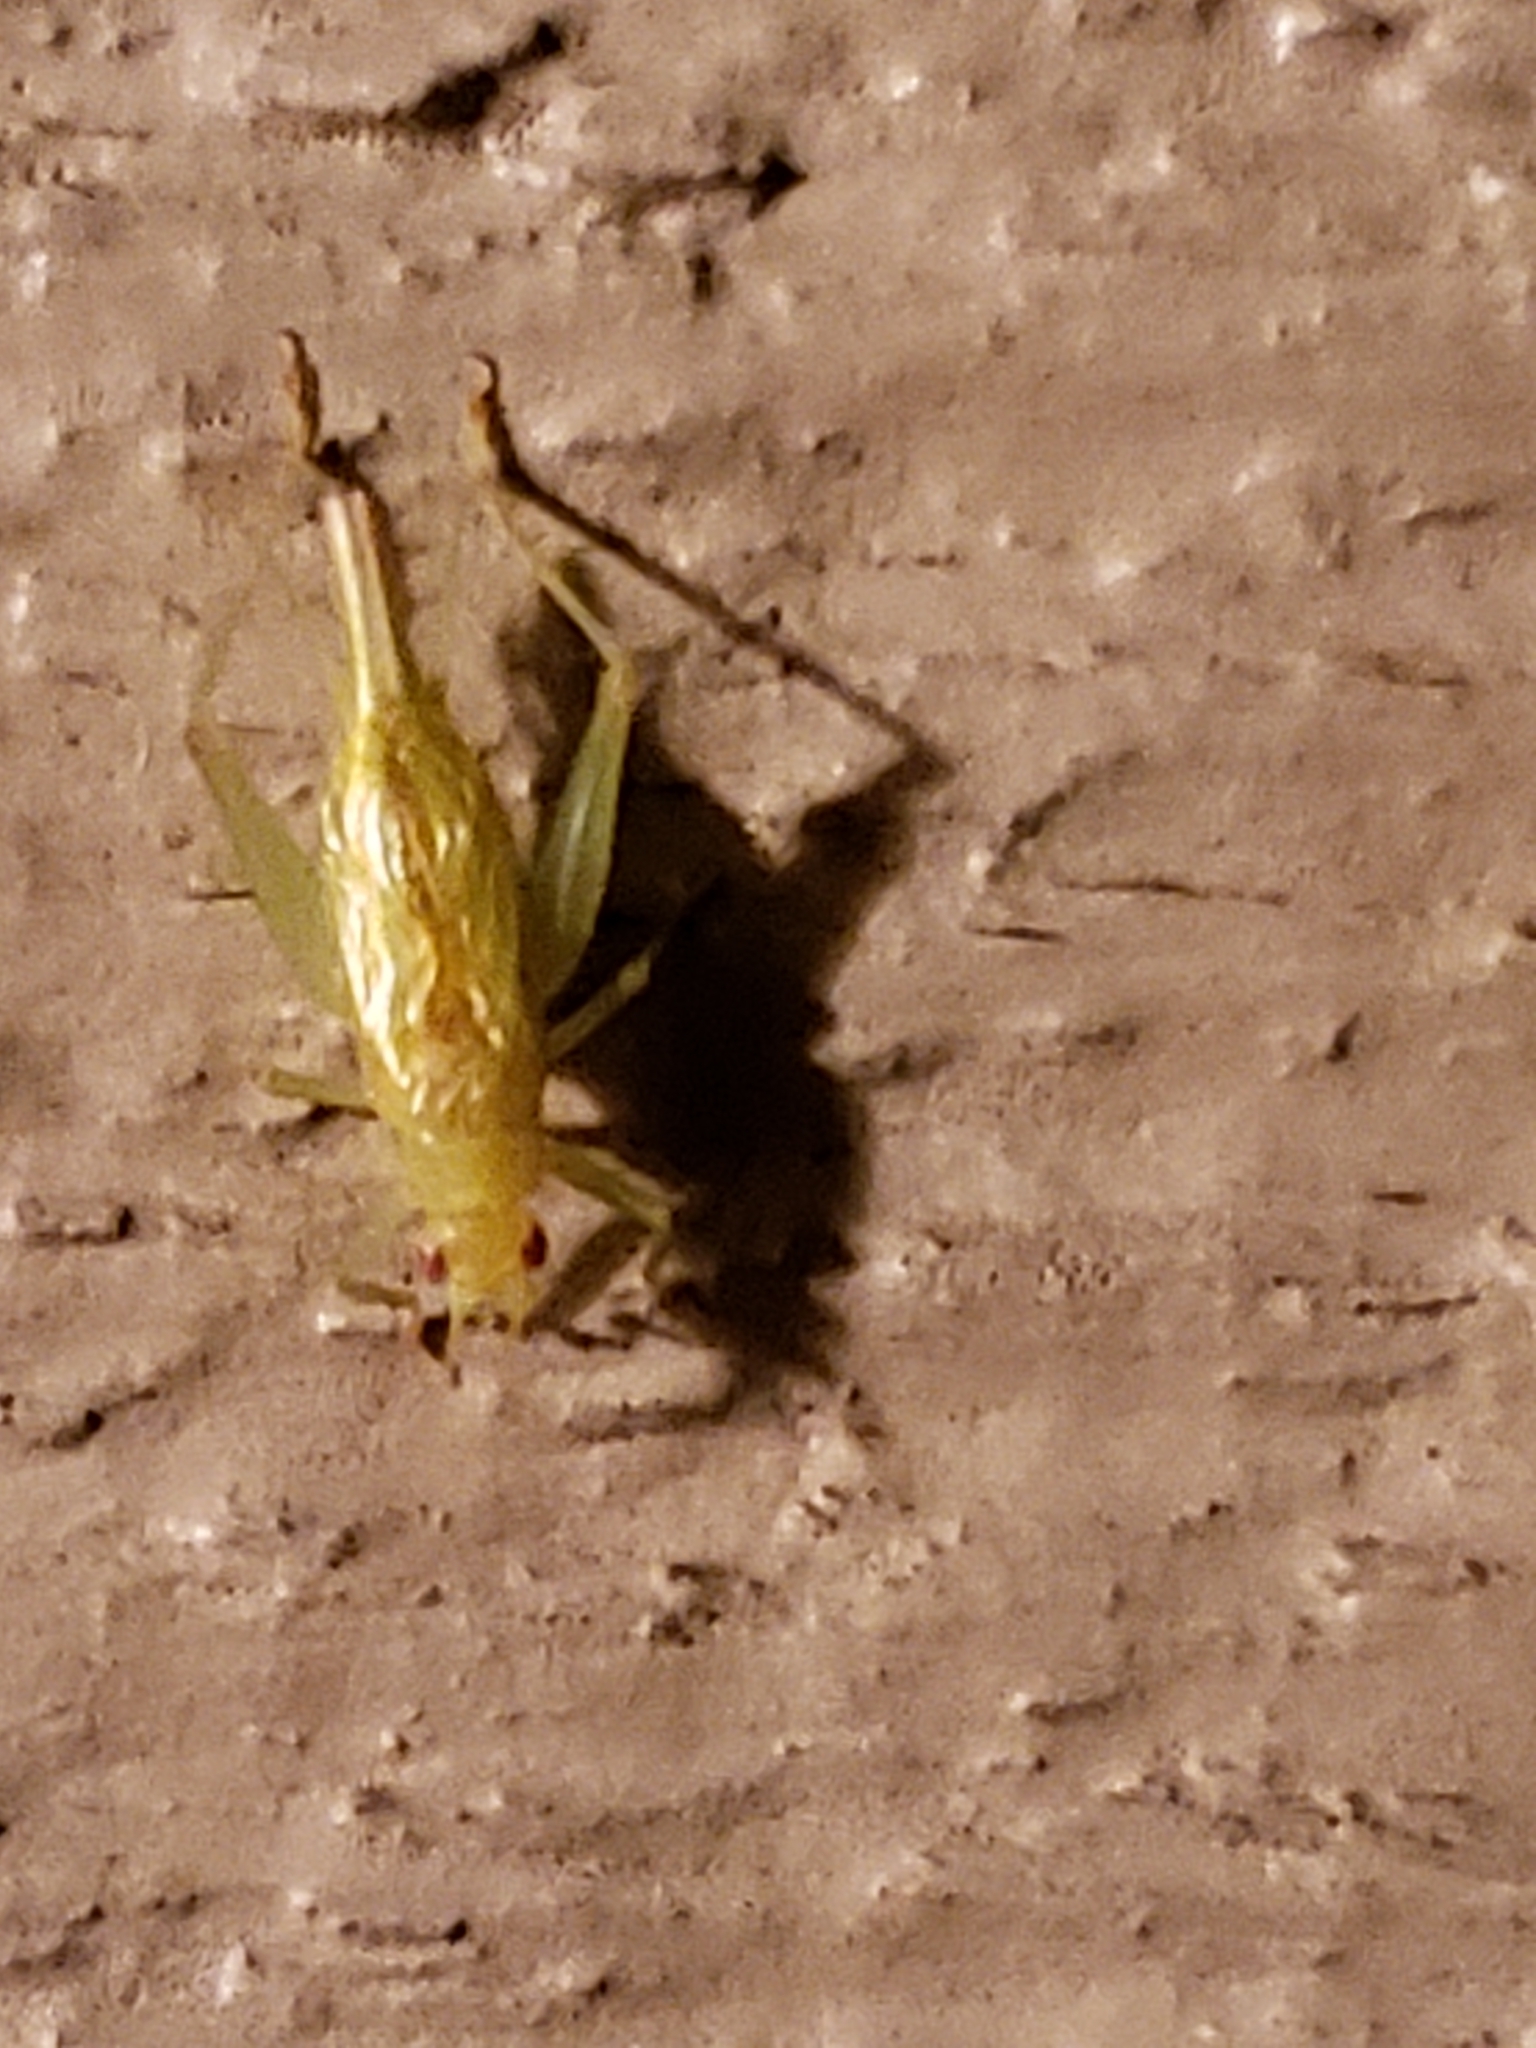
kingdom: Animalia
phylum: Arthropoda
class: Insecta
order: Orthoptera
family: Trigonidiidae
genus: Cyrtoxipha
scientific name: Cyrtoxipha columbiana
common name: Columbian trig
